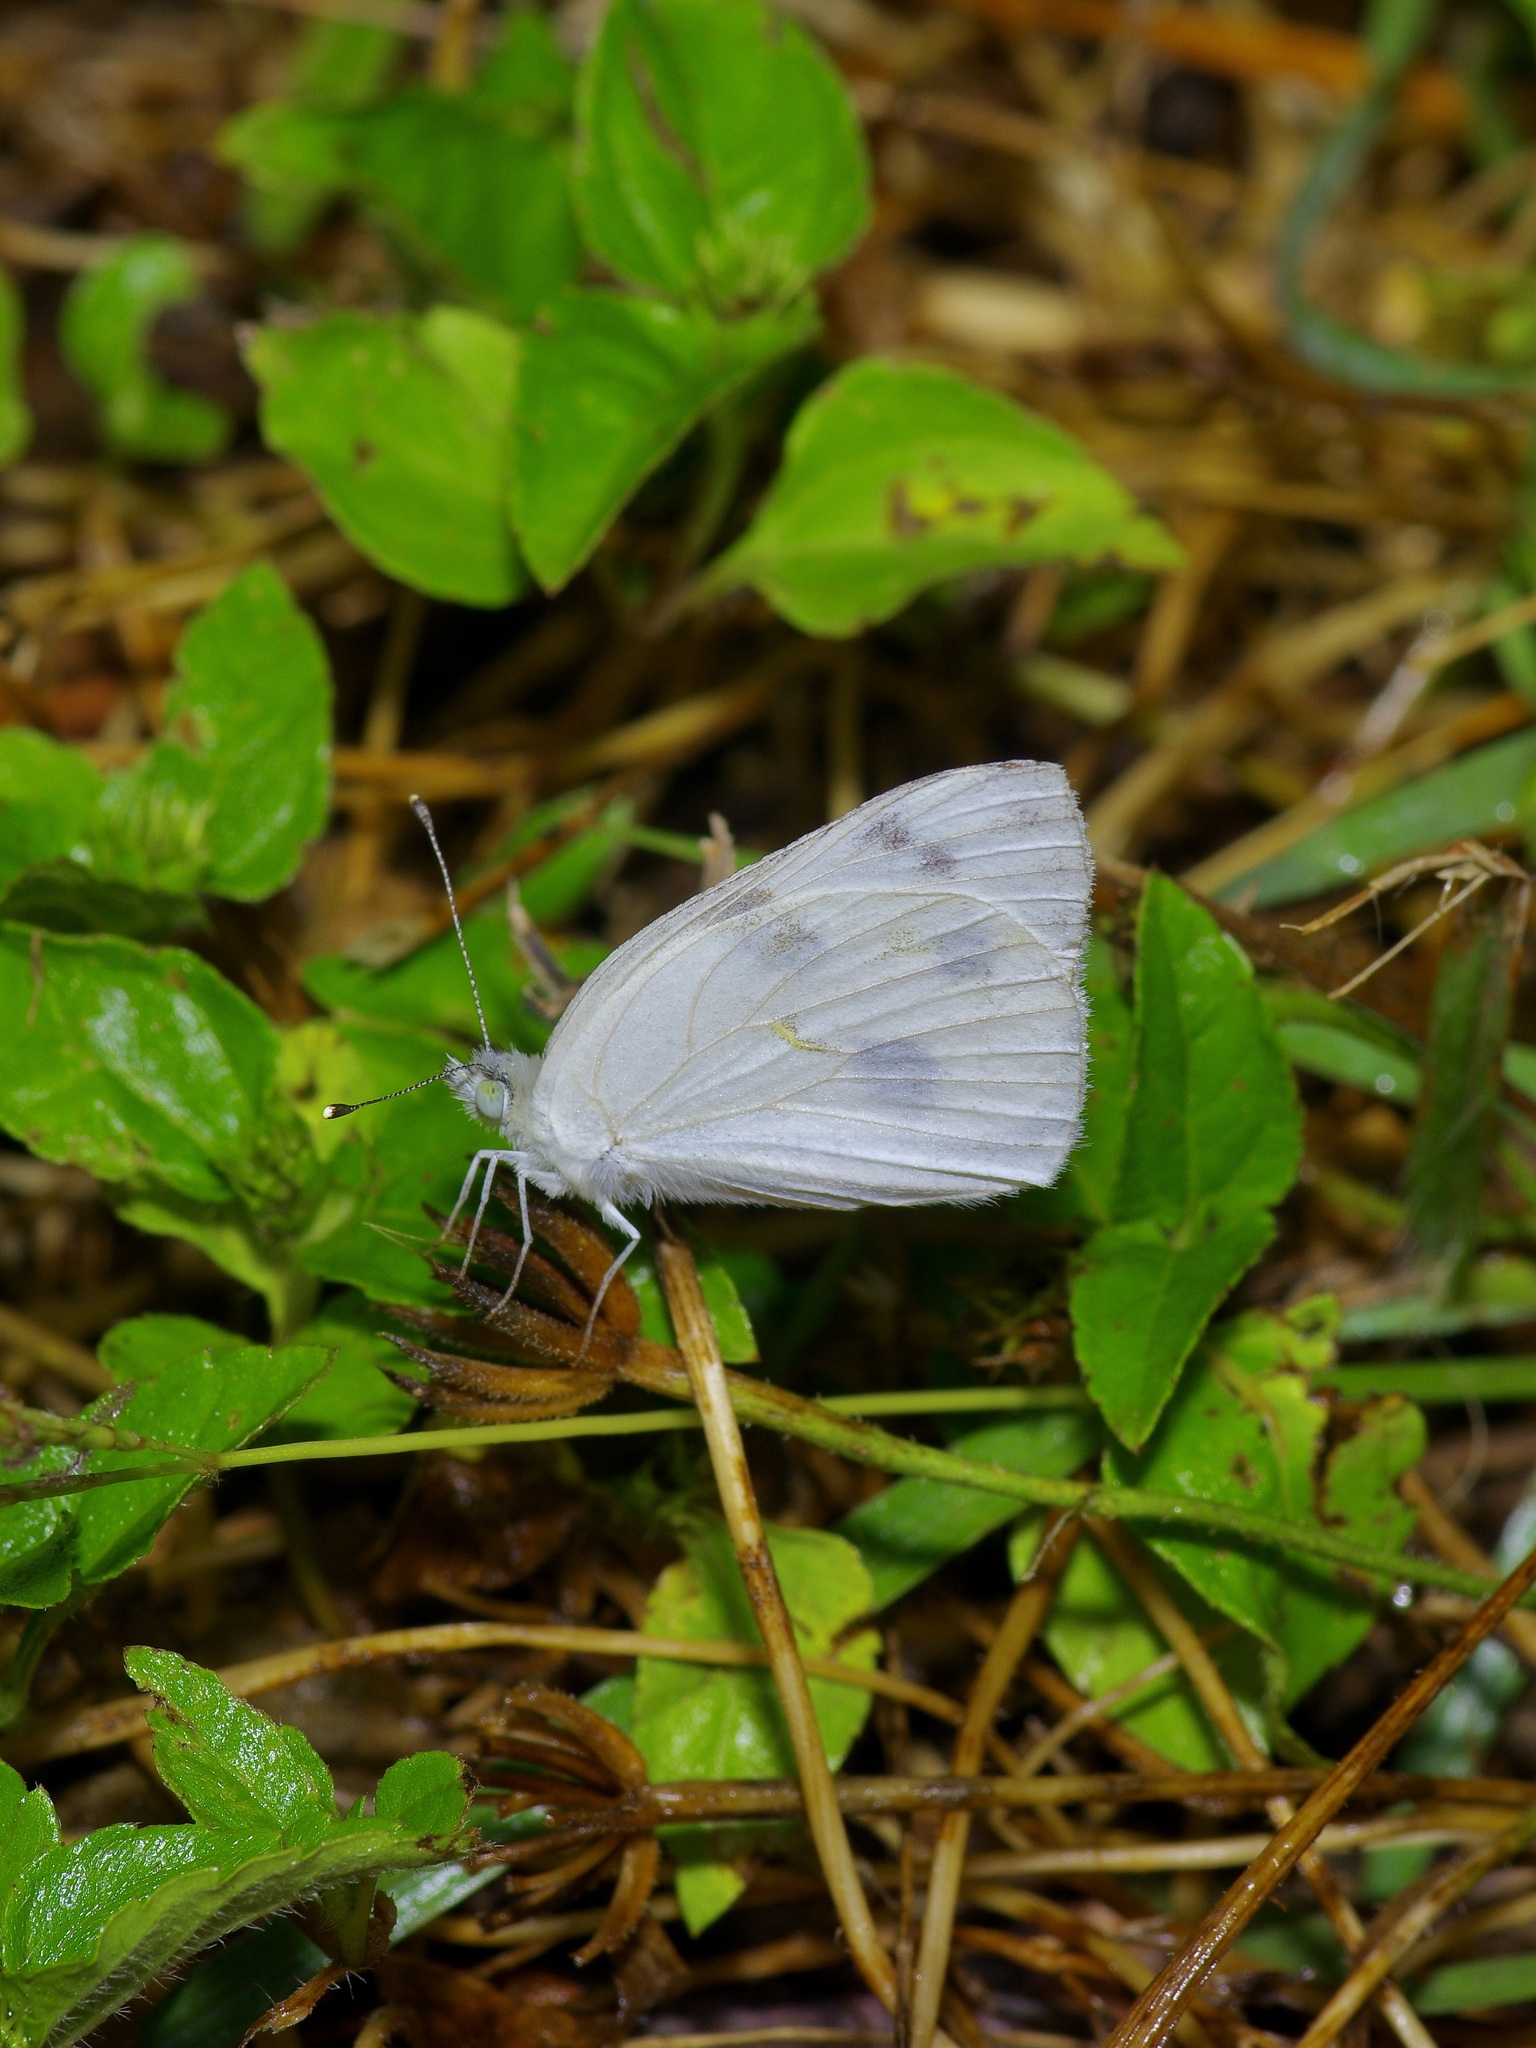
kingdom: Animalia
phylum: Arthropoda
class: Insecta
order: Lepidoptera
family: Pieridae
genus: Pontia
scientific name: Pontia protodice
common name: Checkered white
